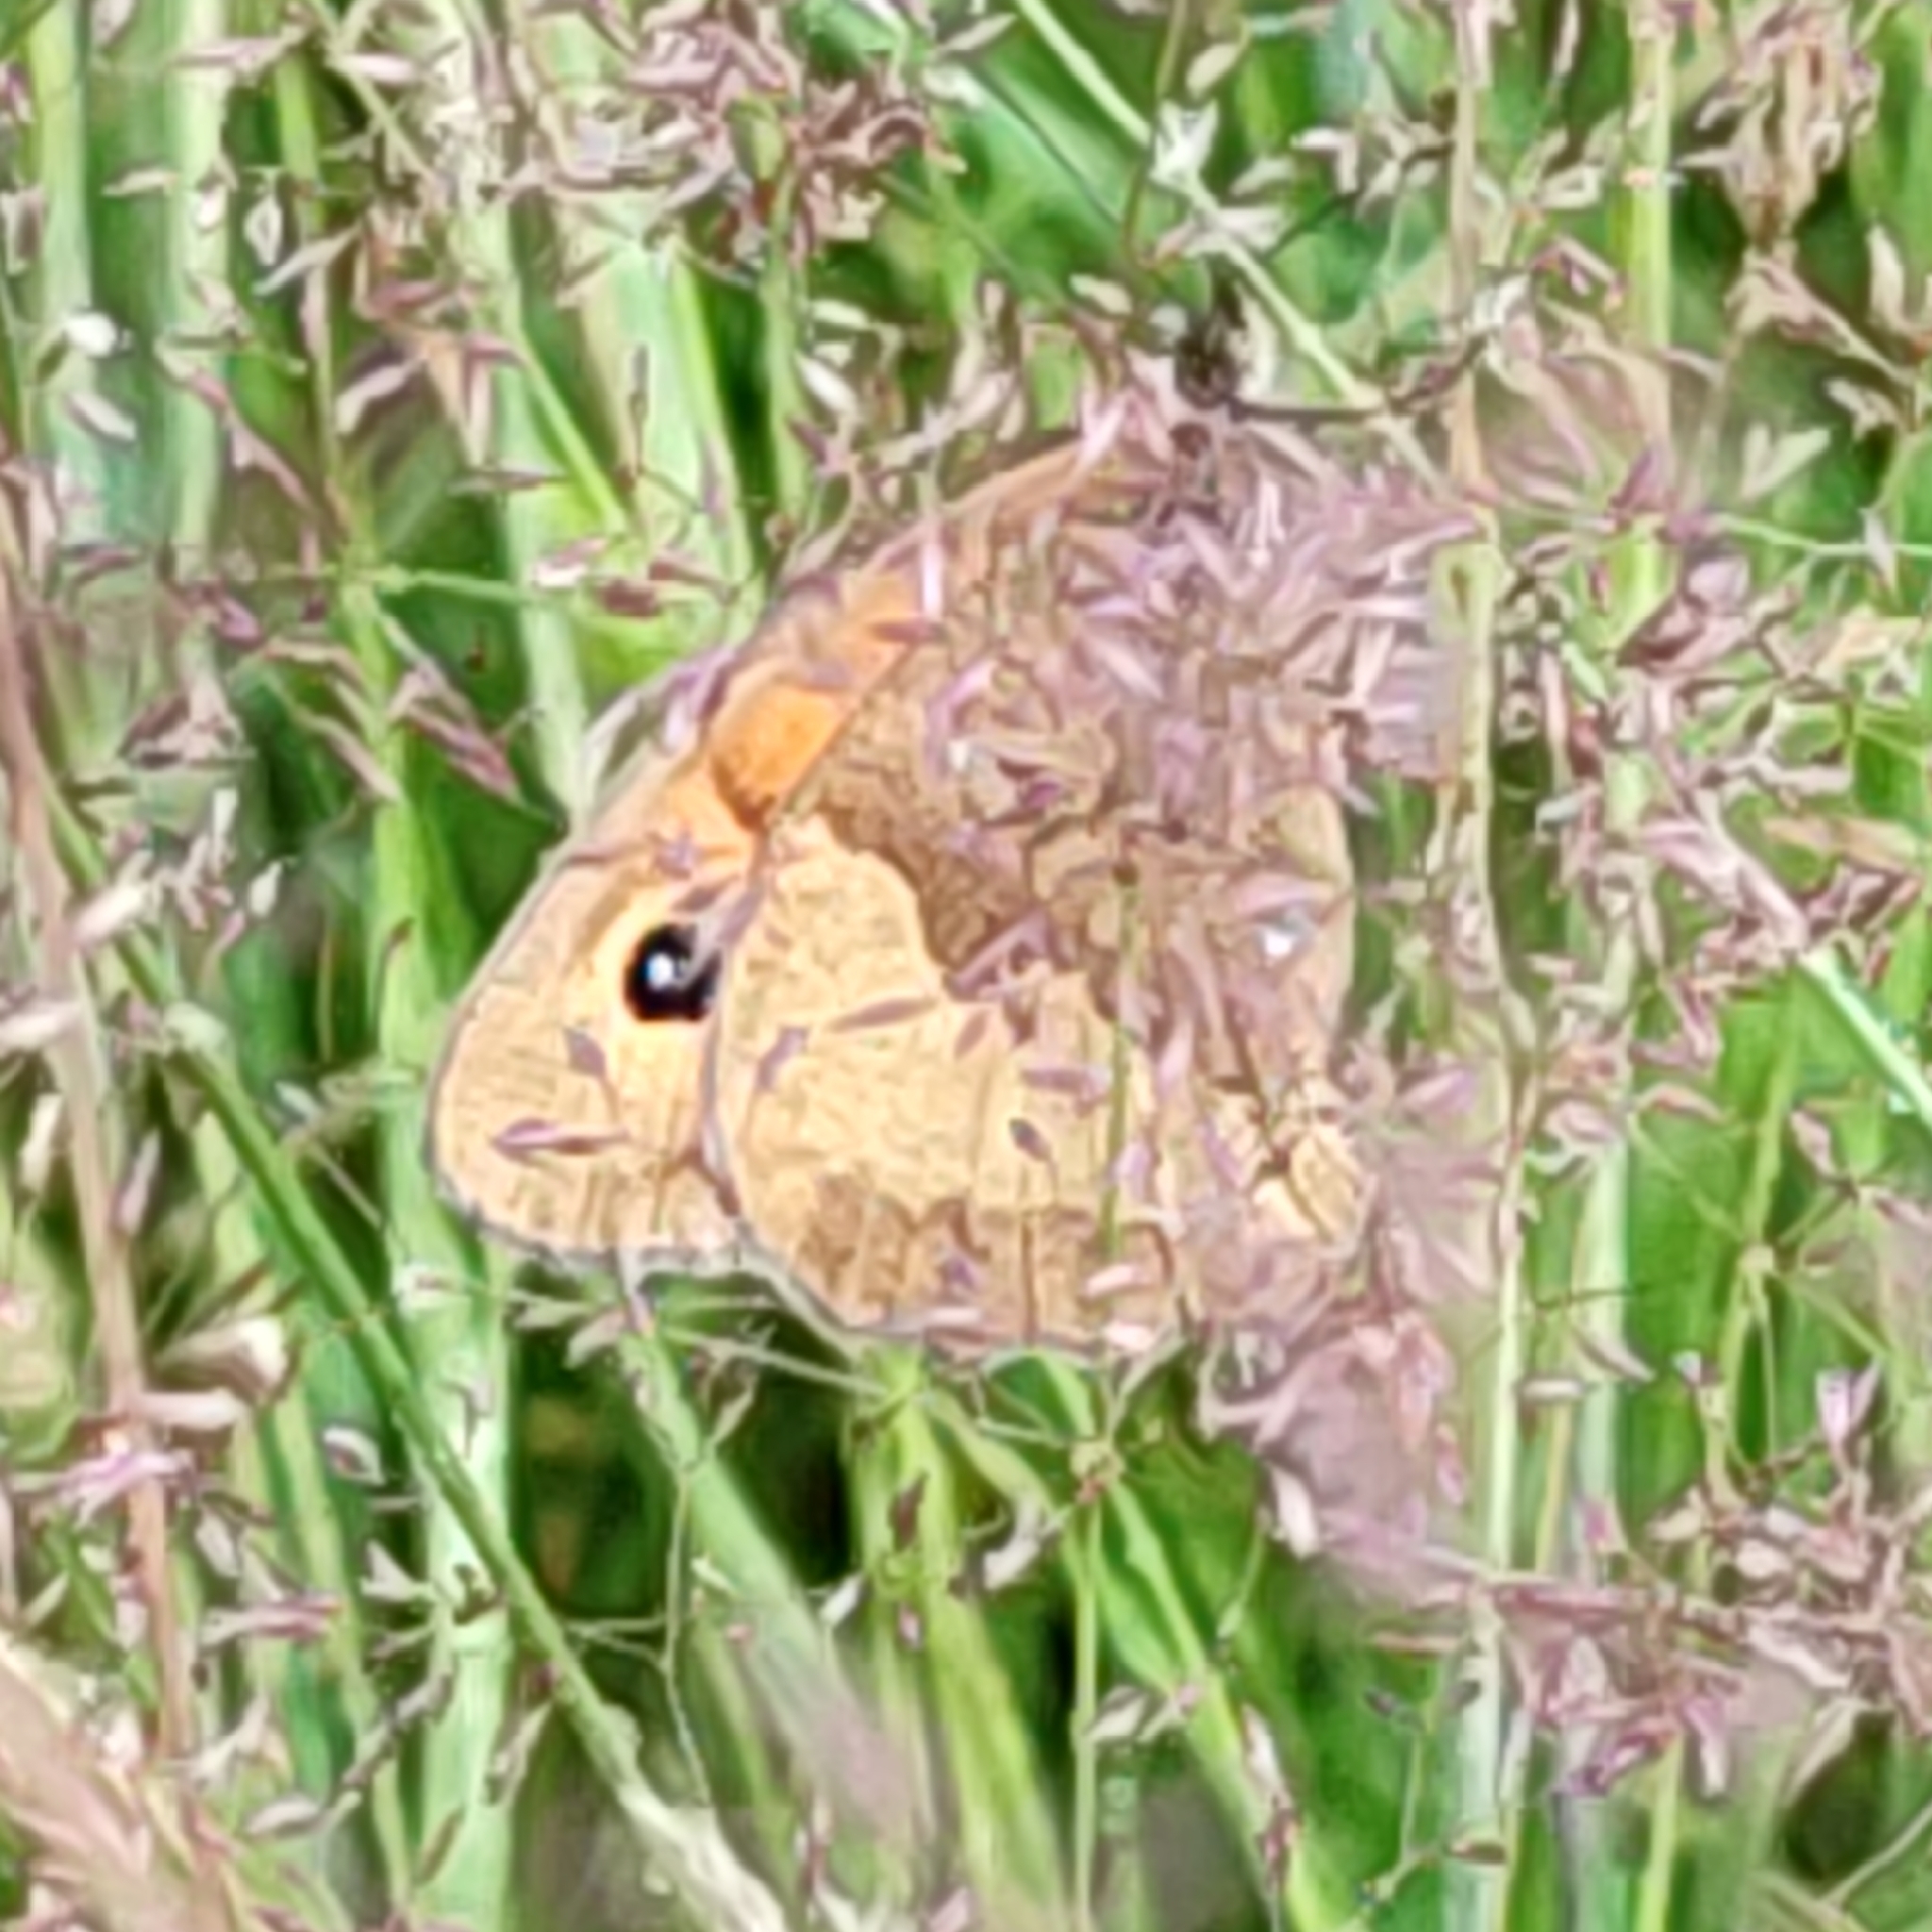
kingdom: Animalia
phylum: Arthropoda
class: Insecta
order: Lepidoptera
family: Nymphalidae
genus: Maniola
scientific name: Maniola jurtina
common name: Meadow brown
